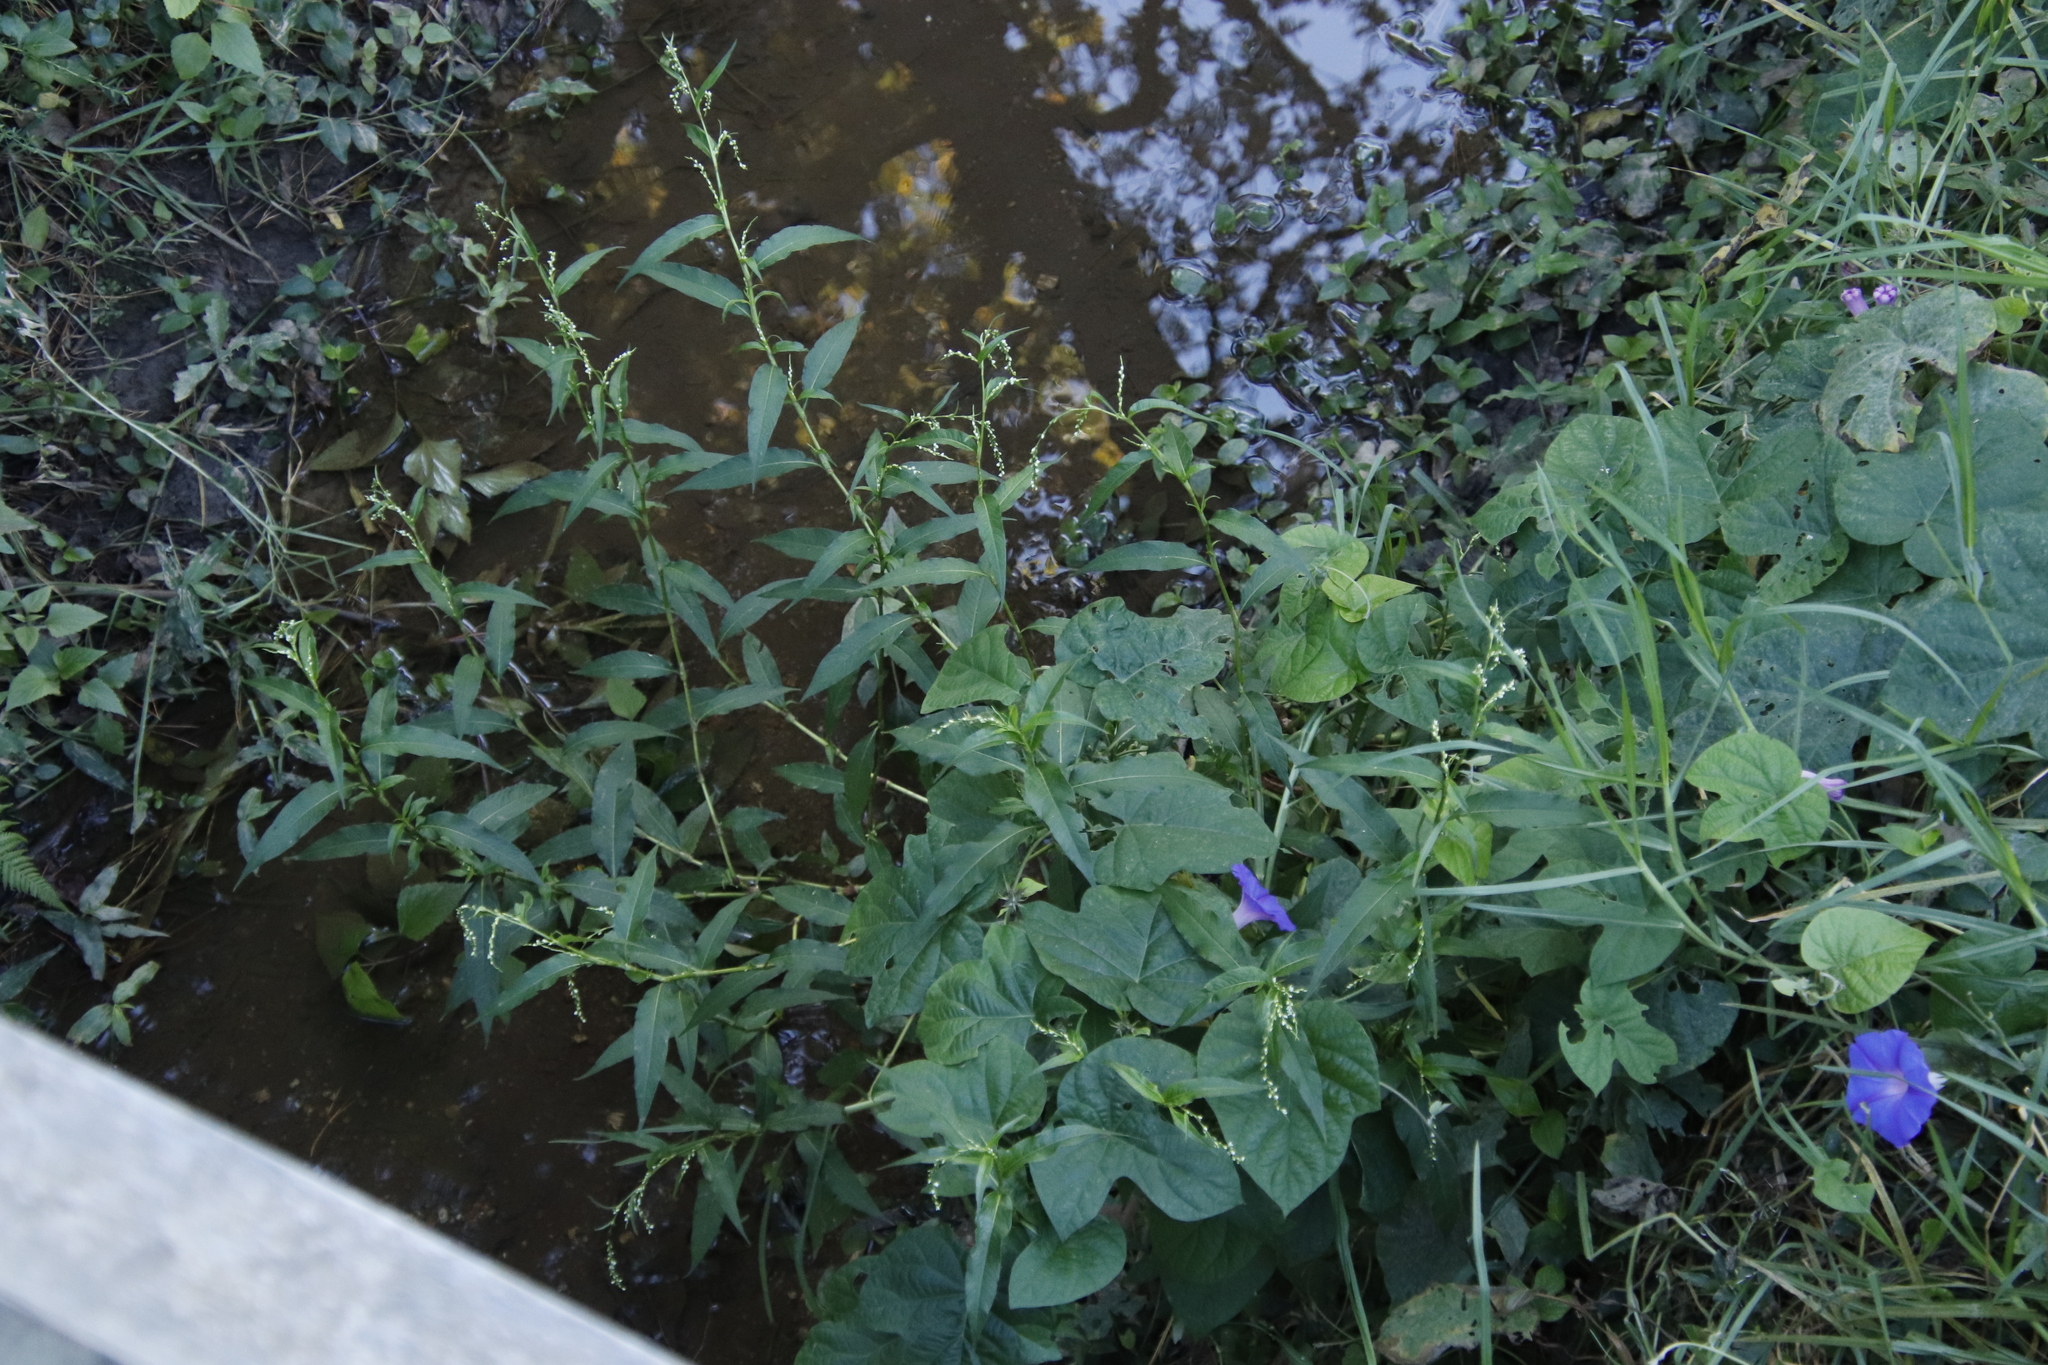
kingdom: Plantae
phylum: Tracheophyta
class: Magnoliopsida
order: Caryophyllales
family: Polygonaceae
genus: Persicaria
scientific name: Persicaria hydropiper
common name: Water-pepper
